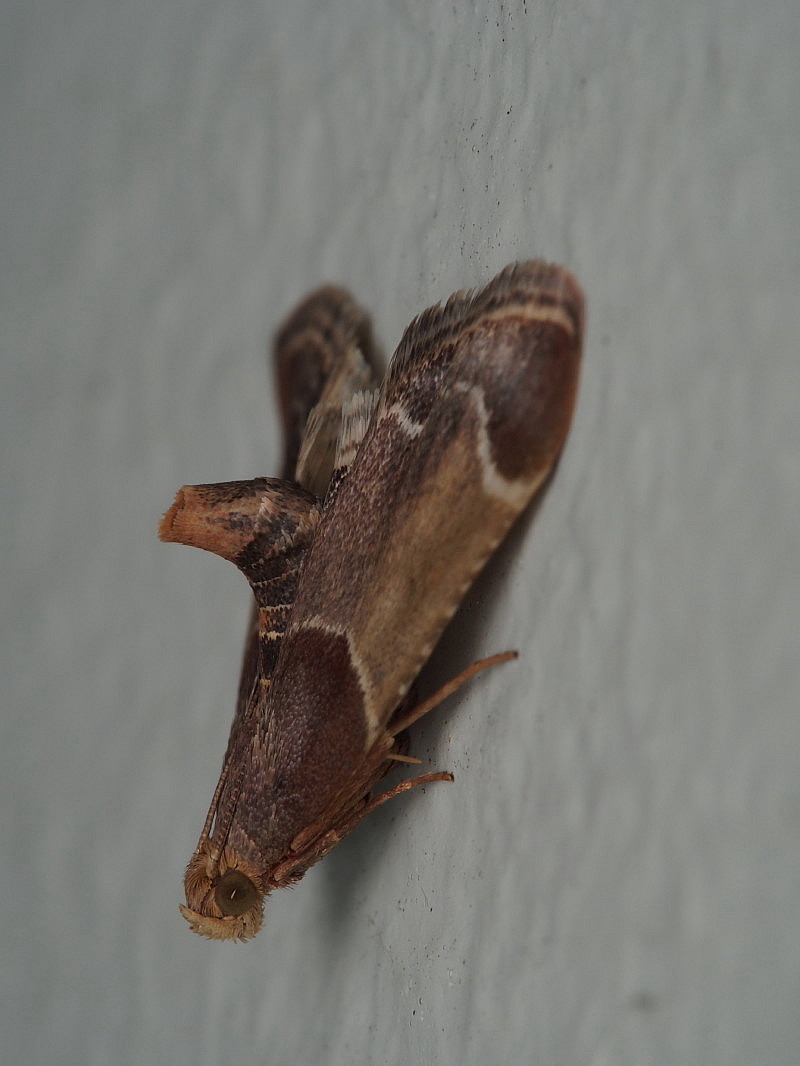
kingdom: Animalia
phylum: Arthropoda
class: Insecta
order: Lepidoptera
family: Pyralidae
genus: Pyralis
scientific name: Pyralis farinalis
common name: Meal moth
